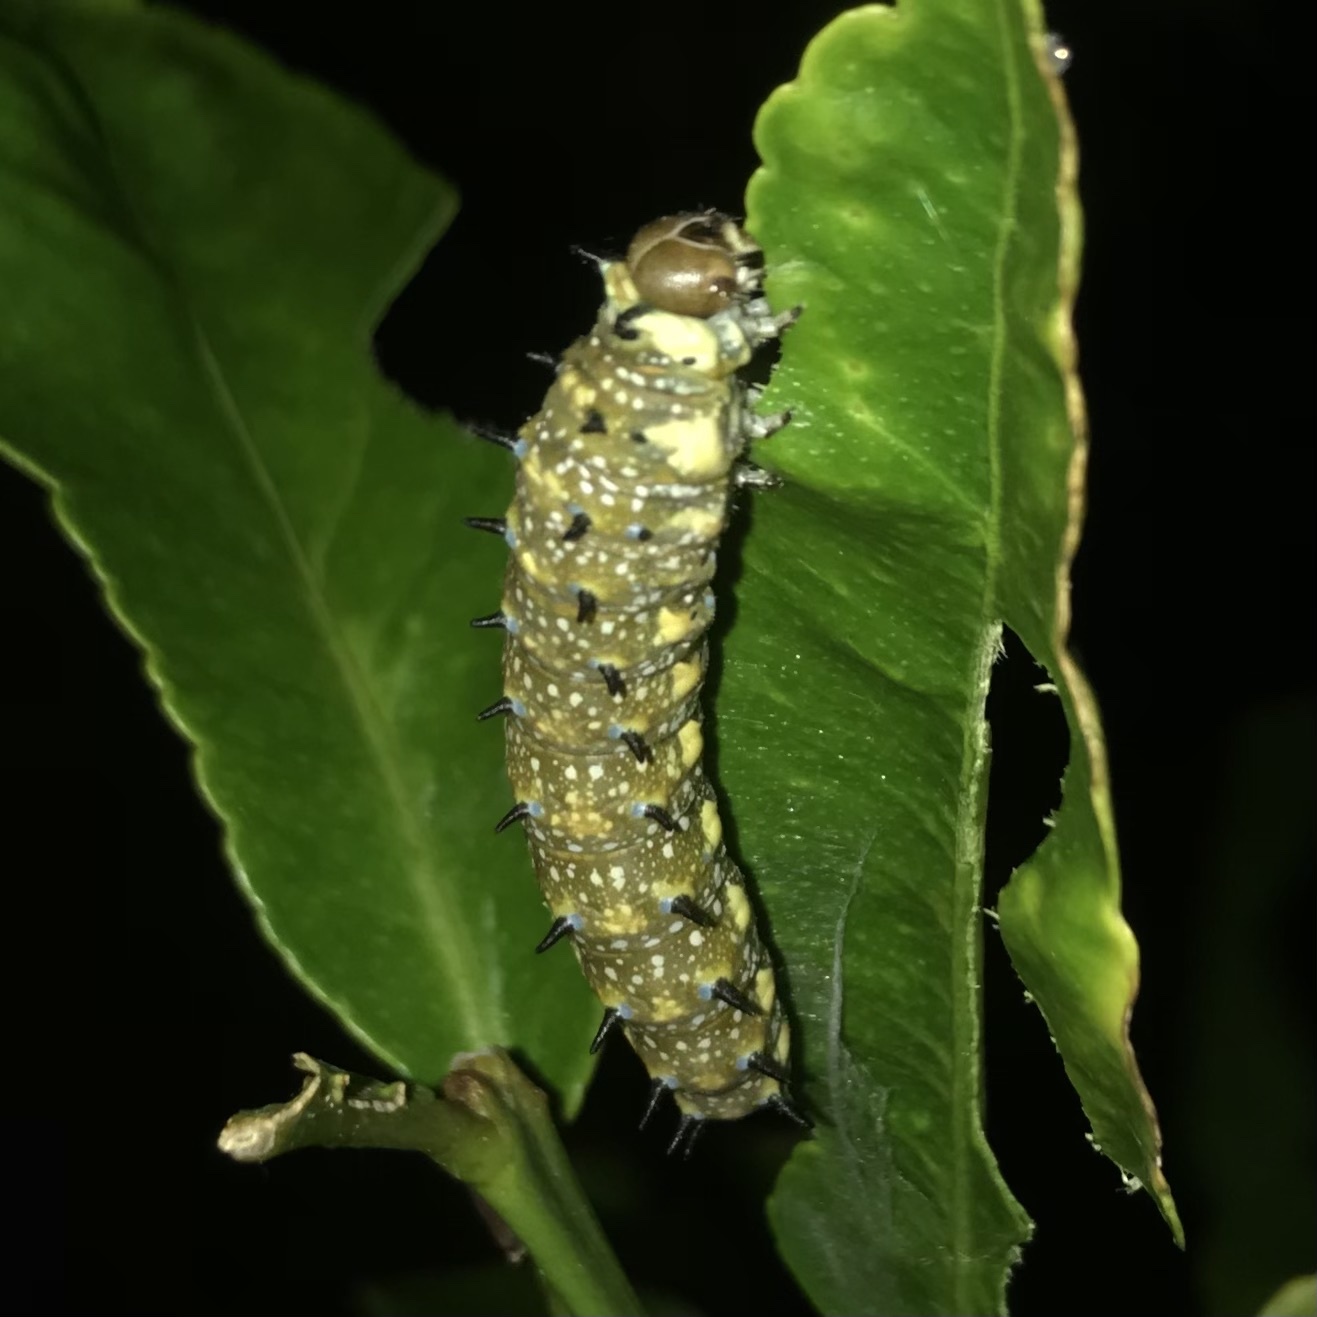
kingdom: Animalia
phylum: Arthropoda
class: Insecta
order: Lepidoptera
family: Papilionidae
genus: Papilio
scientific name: Papilio anactus
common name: Dingy swallowtail
